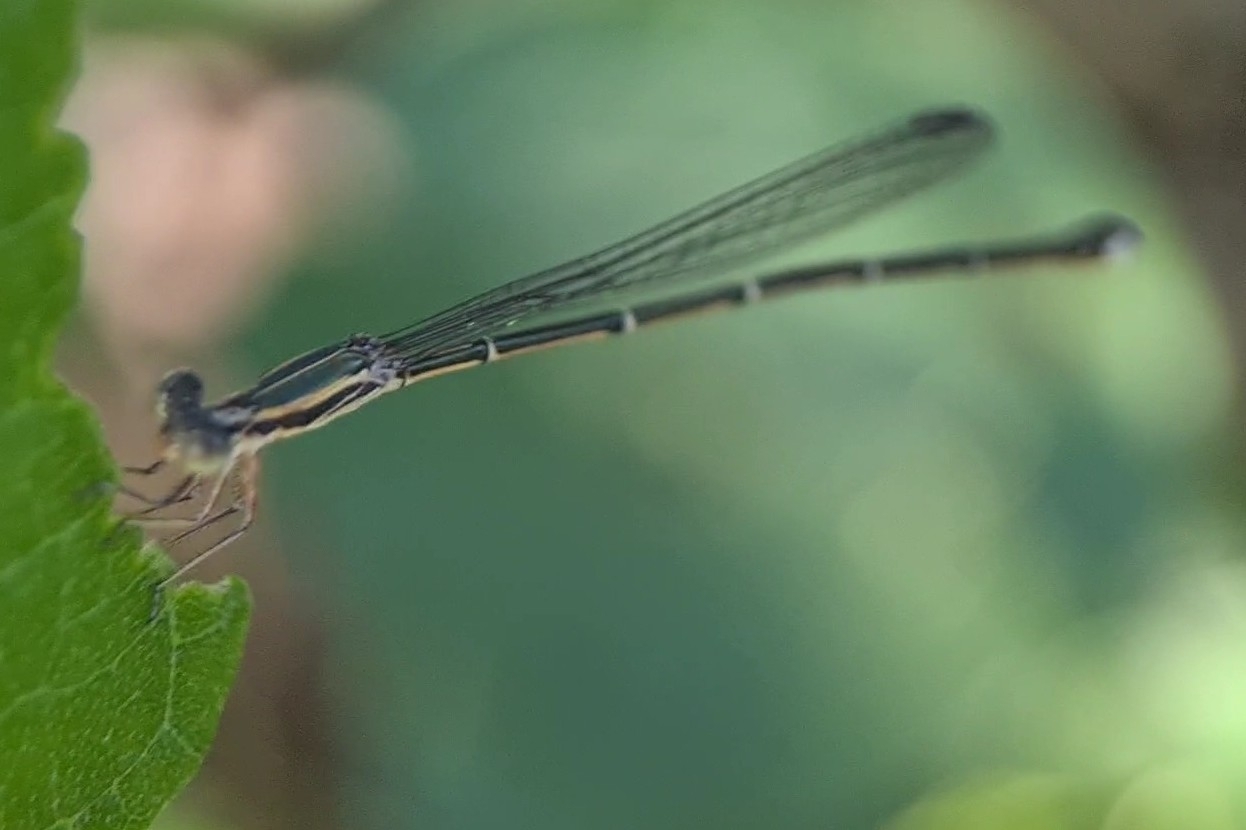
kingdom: Animalia
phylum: Arthropoda
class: Insecta
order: Odonata
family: Isostictidae
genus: Rhadinosticta
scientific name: Rhadinosticta simplex
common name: Powdered wiretail
